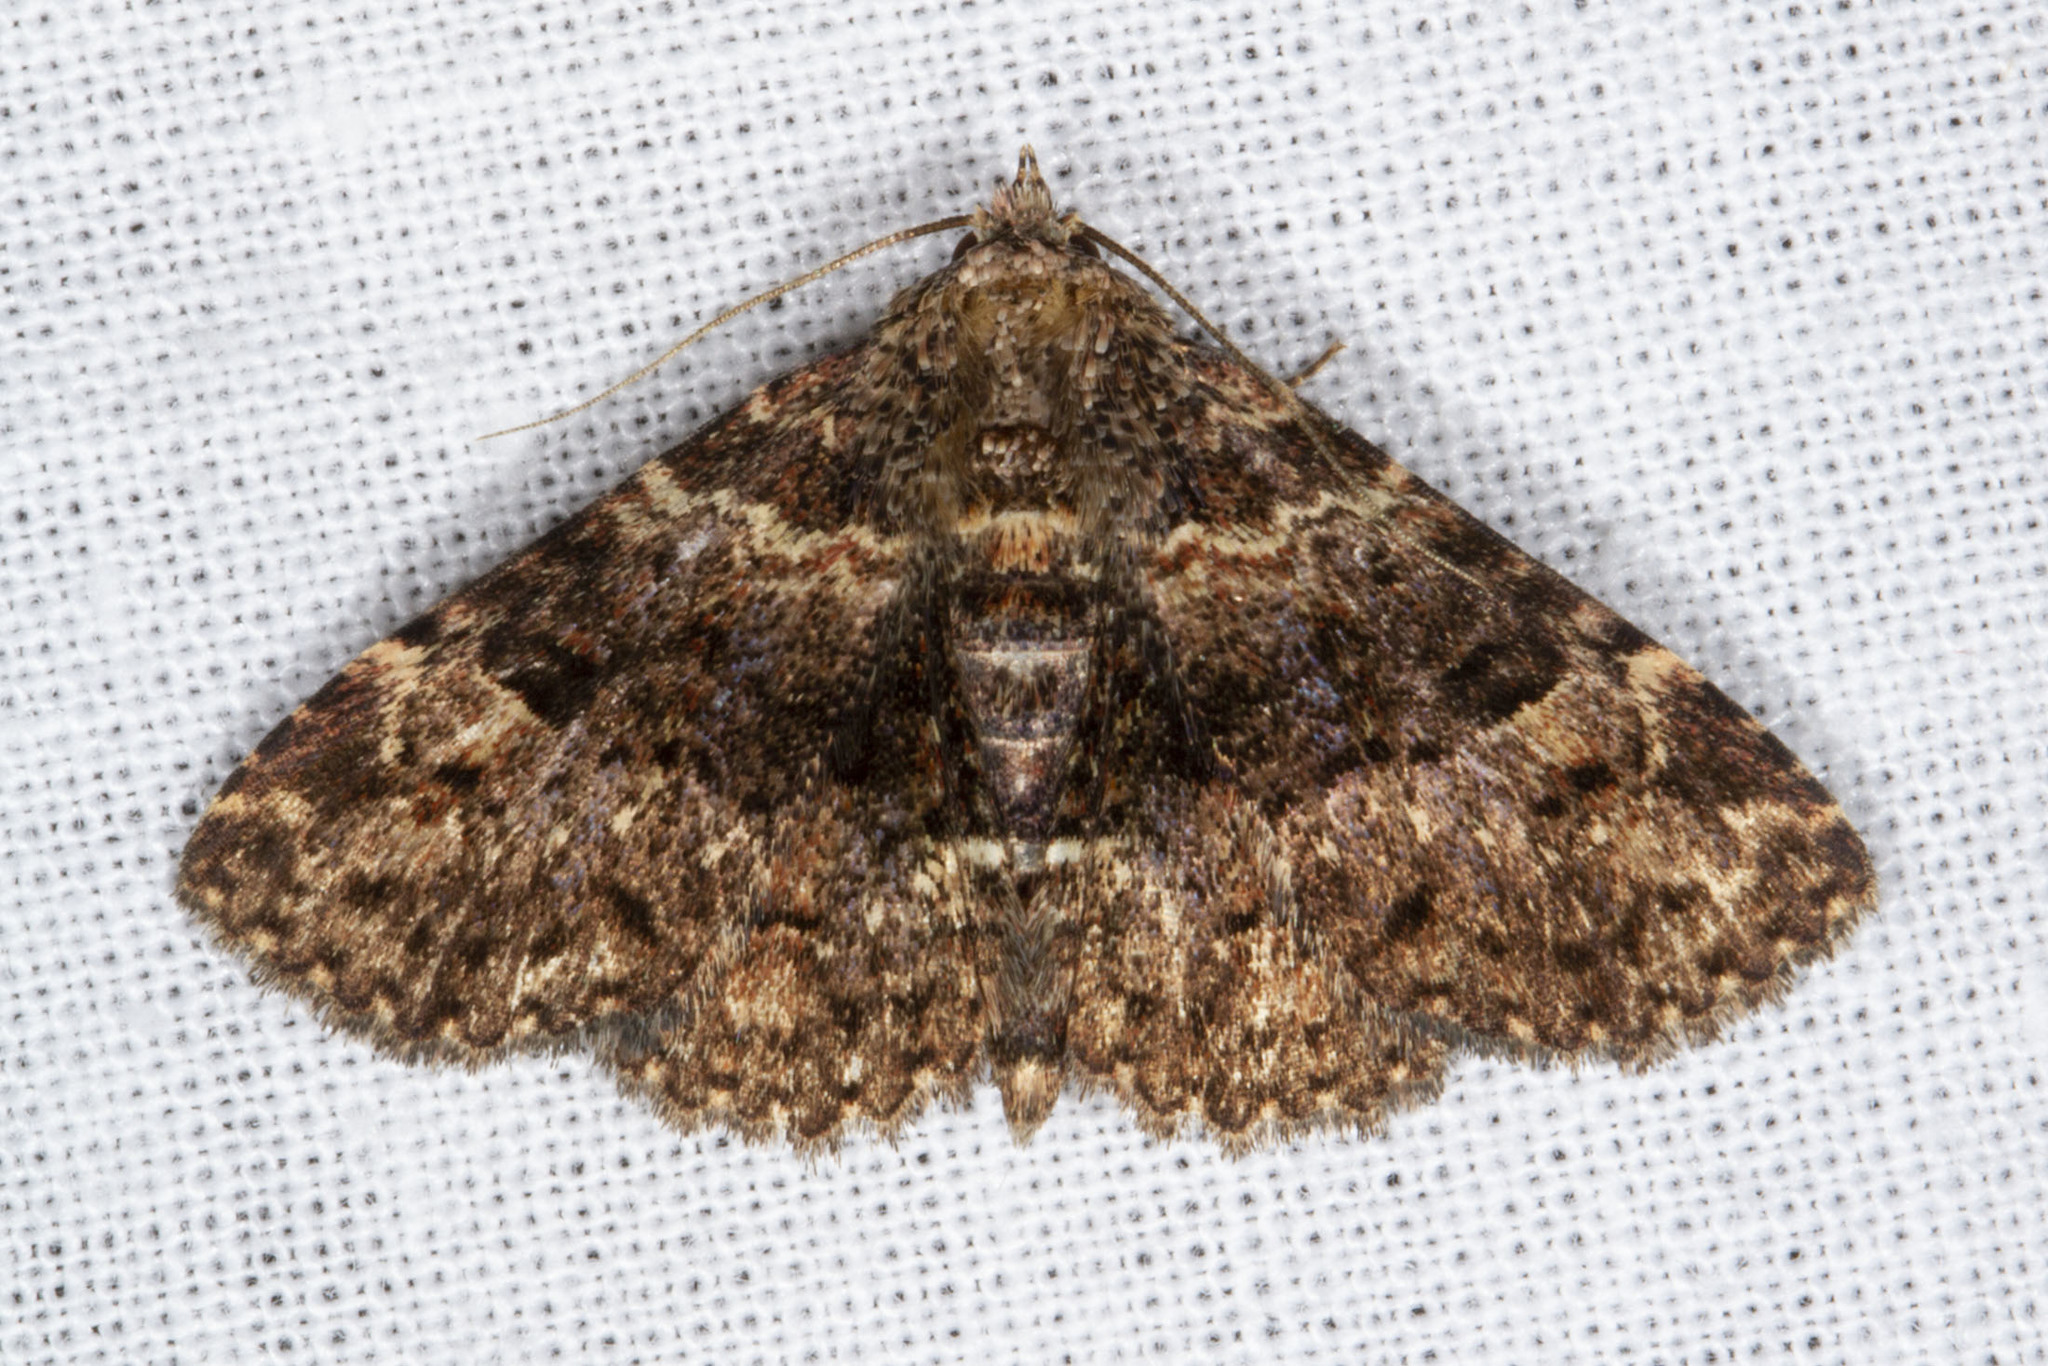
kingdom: Animalia
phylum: Arthropoda
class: Insecta
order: Lepidoptera
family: Erebidae
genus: Metalectra
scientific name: Metalectra discalis
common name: Common fungus moth
